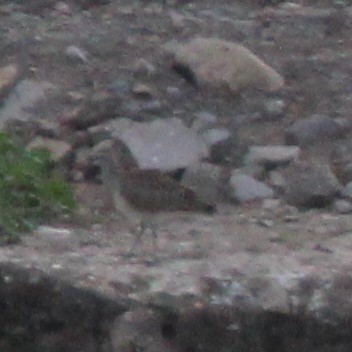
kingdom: Animalia
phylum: Chordata
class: Aves
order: Charadriiformes
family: Scolopacidae
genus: Numenius
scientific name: Numenius phaeopus
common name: Whimbrel
